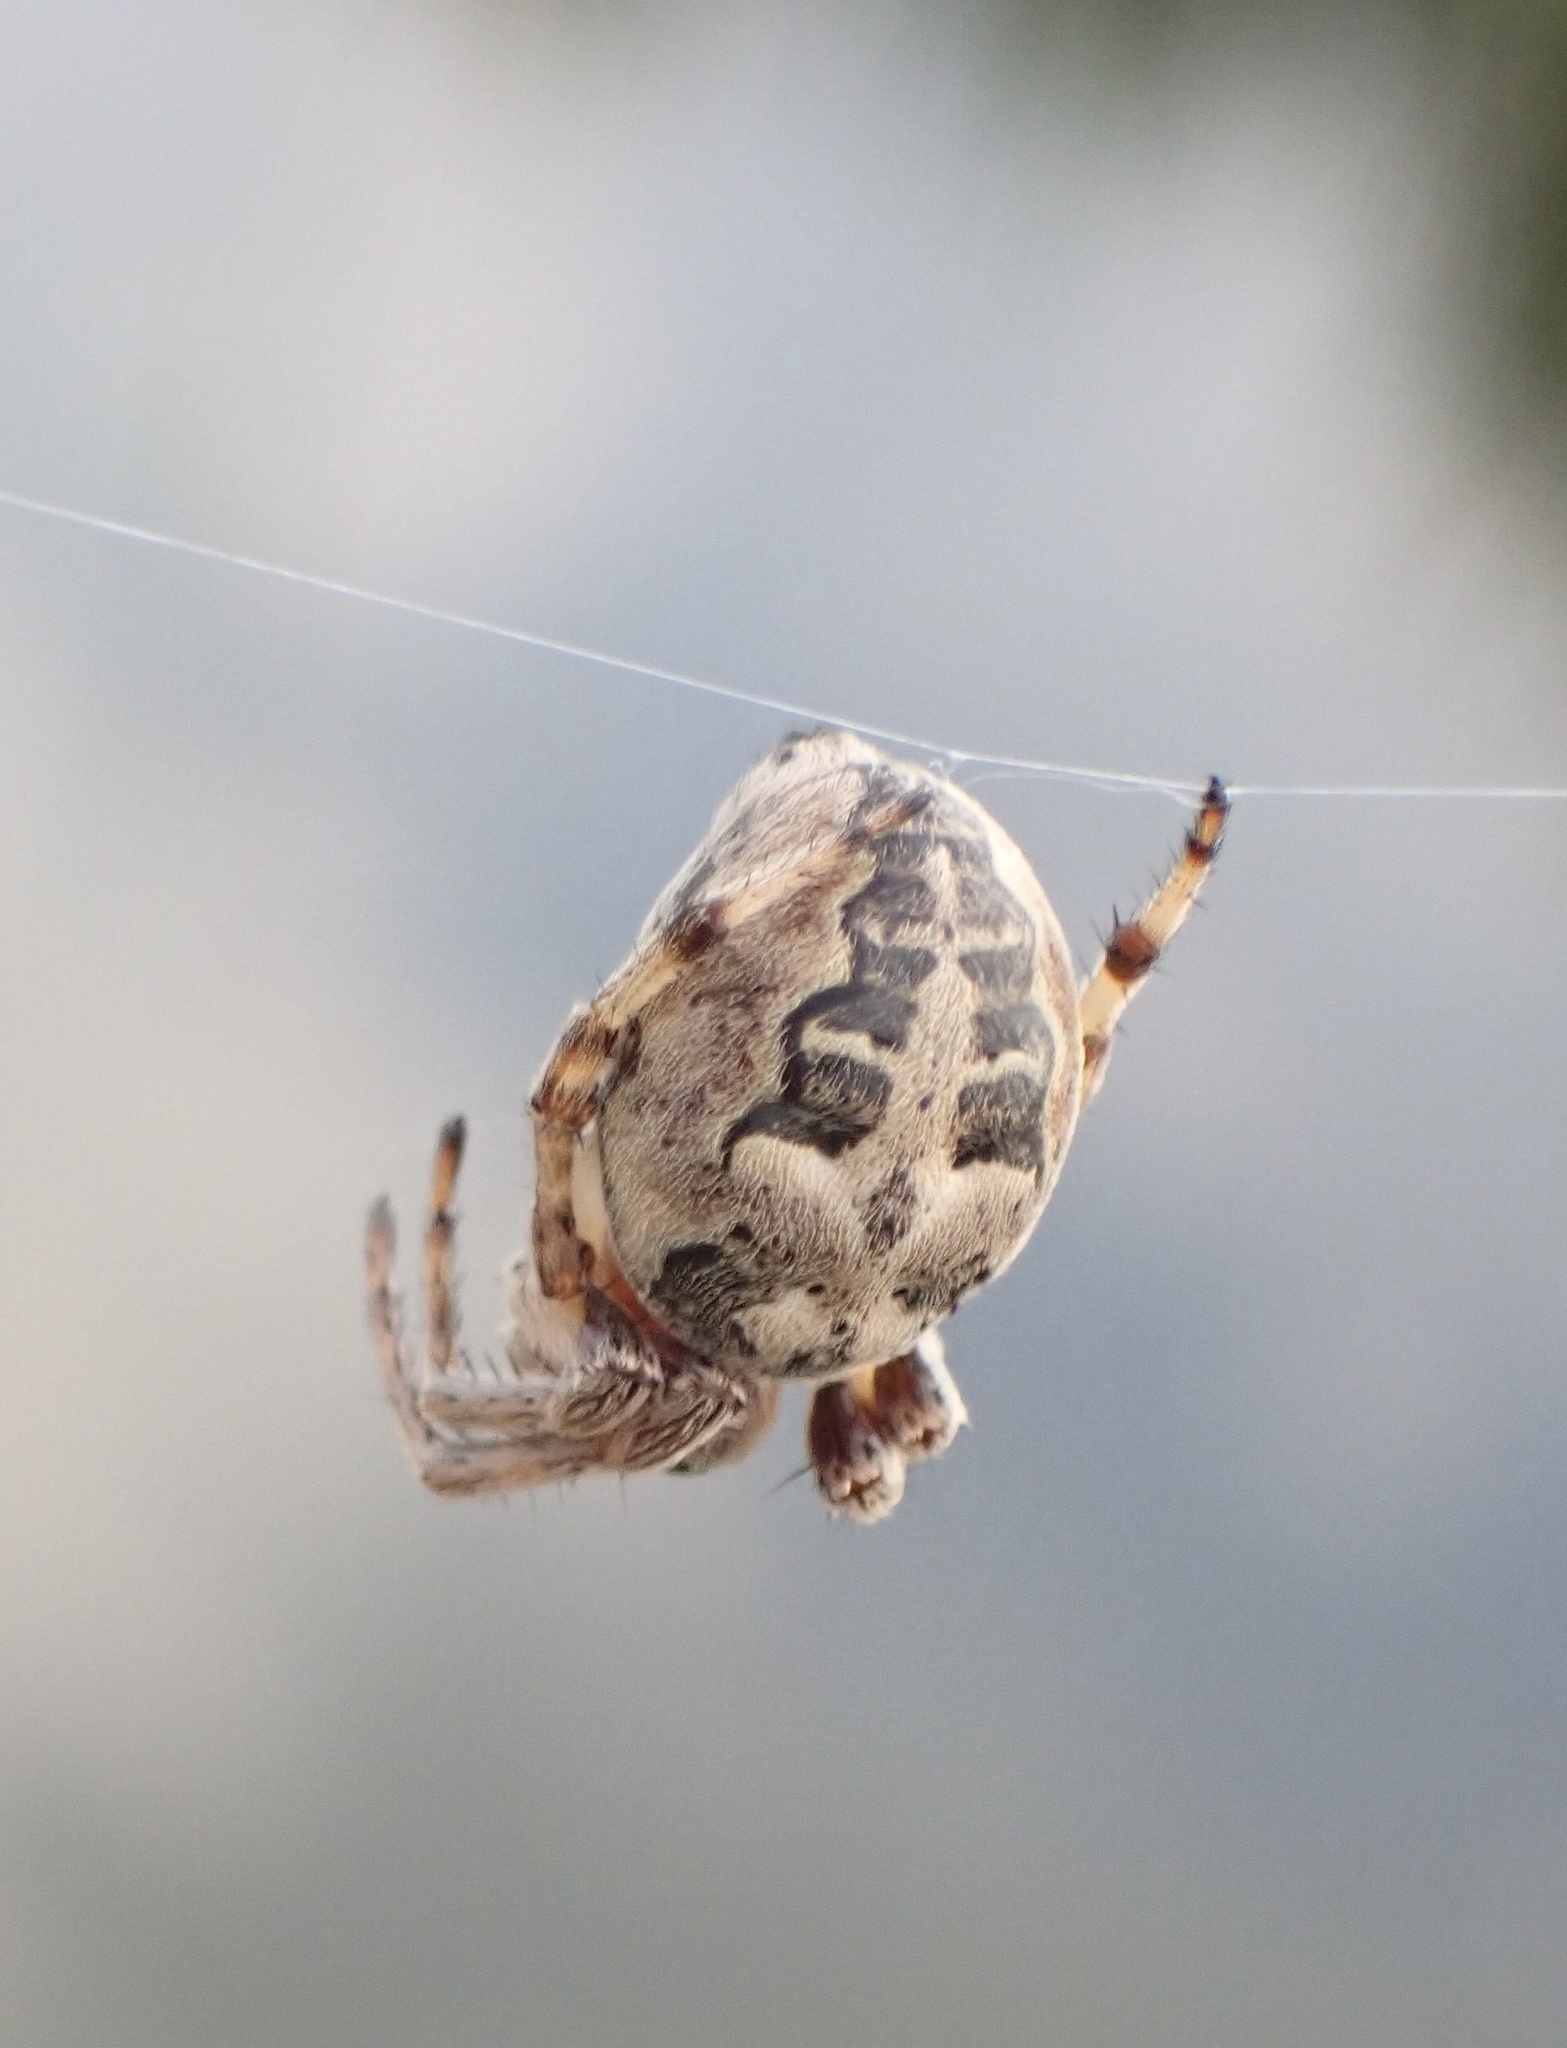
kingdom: Animalia
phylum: Arthropoda
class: Arachnida
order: Araneae
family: Araneidae
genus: Larinioides
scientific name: Larinioides cornutus
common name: Furrow orbweaver
